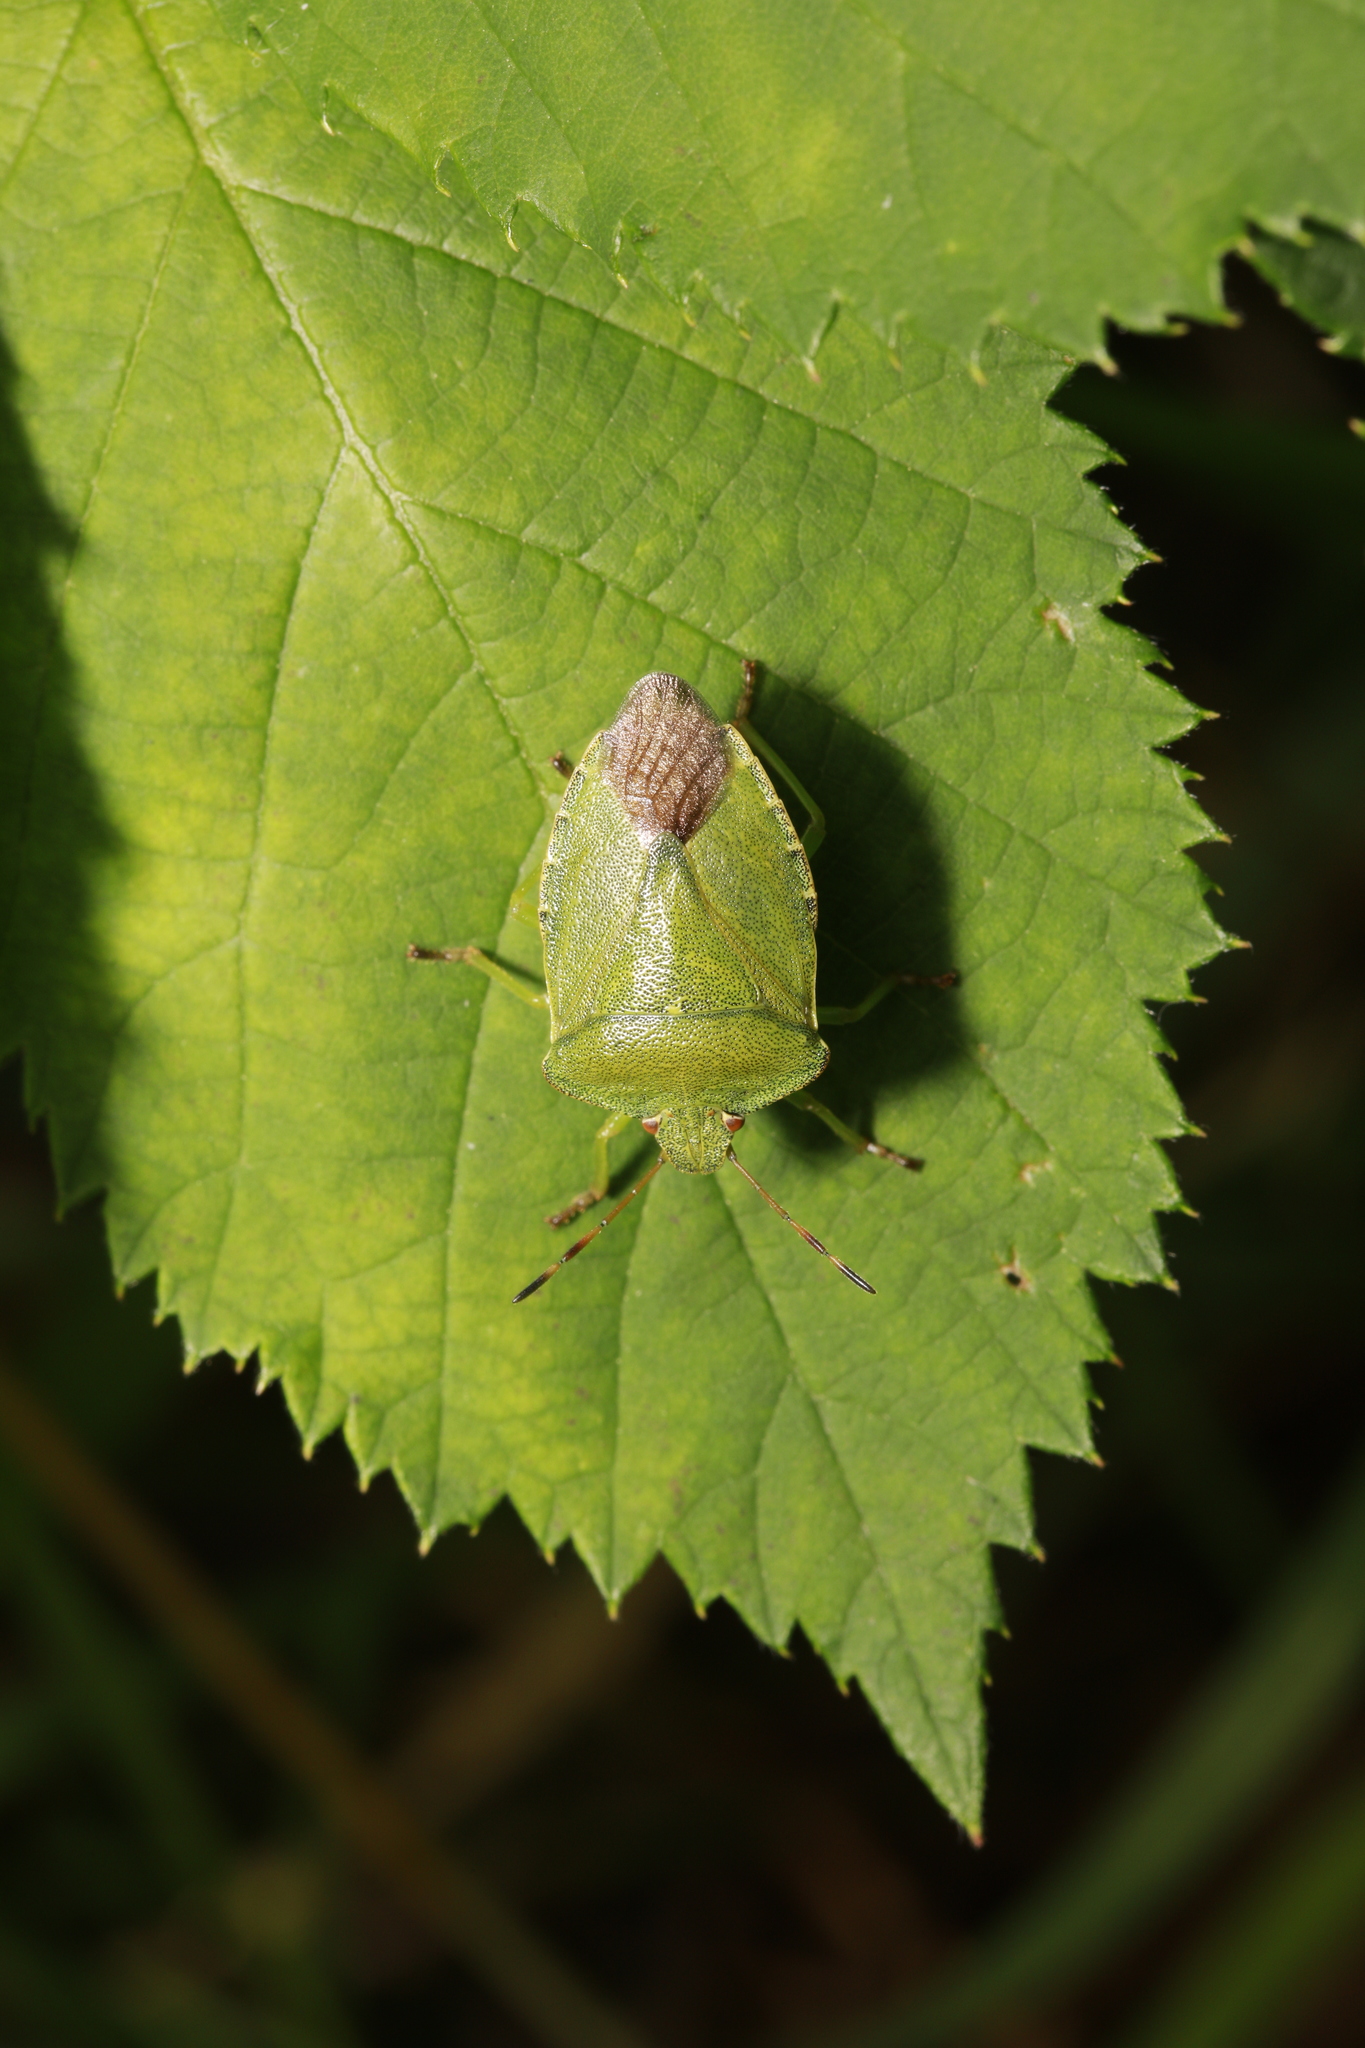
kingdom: Animalia
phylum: Arthropoda
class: Insecta
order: Hemiptera
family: Pentatomidae
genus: Palomena
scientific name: Palomena prasina
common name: Green shieldbug
